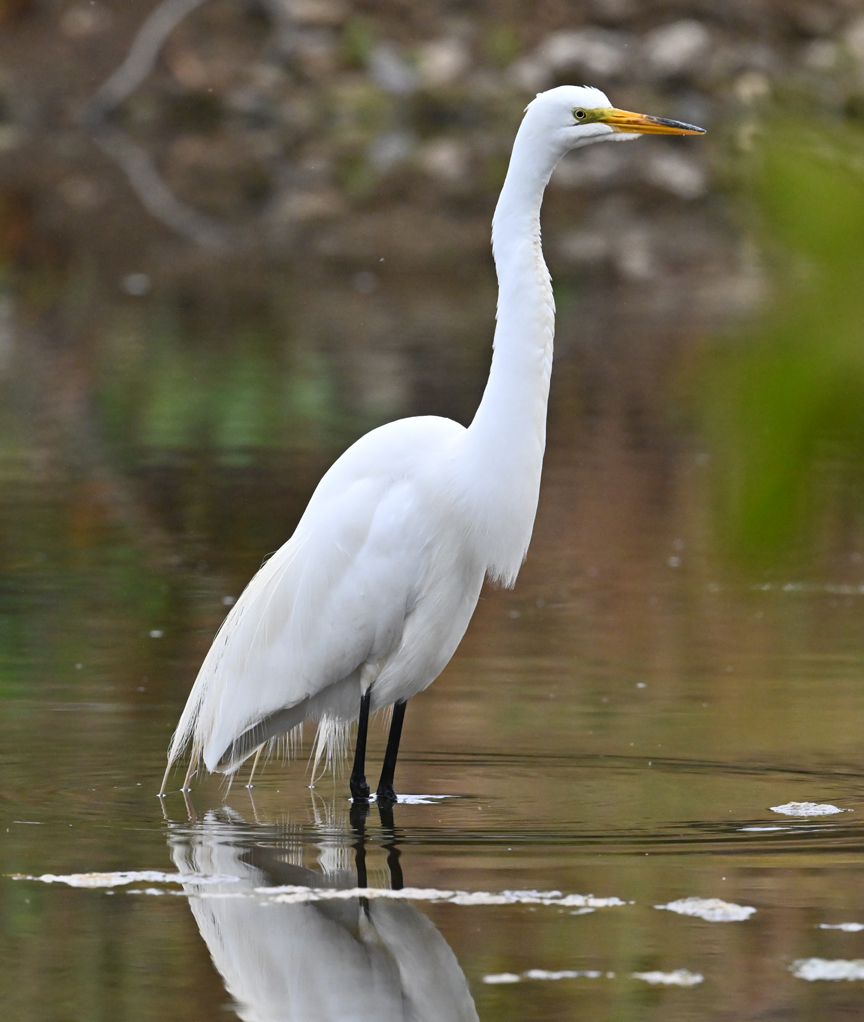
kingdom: Animalia
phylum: Chordata
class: Aves
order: Pelecaniformes
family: Ardeidae
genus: Ardea
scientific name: Ardea alba
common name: Great egret
